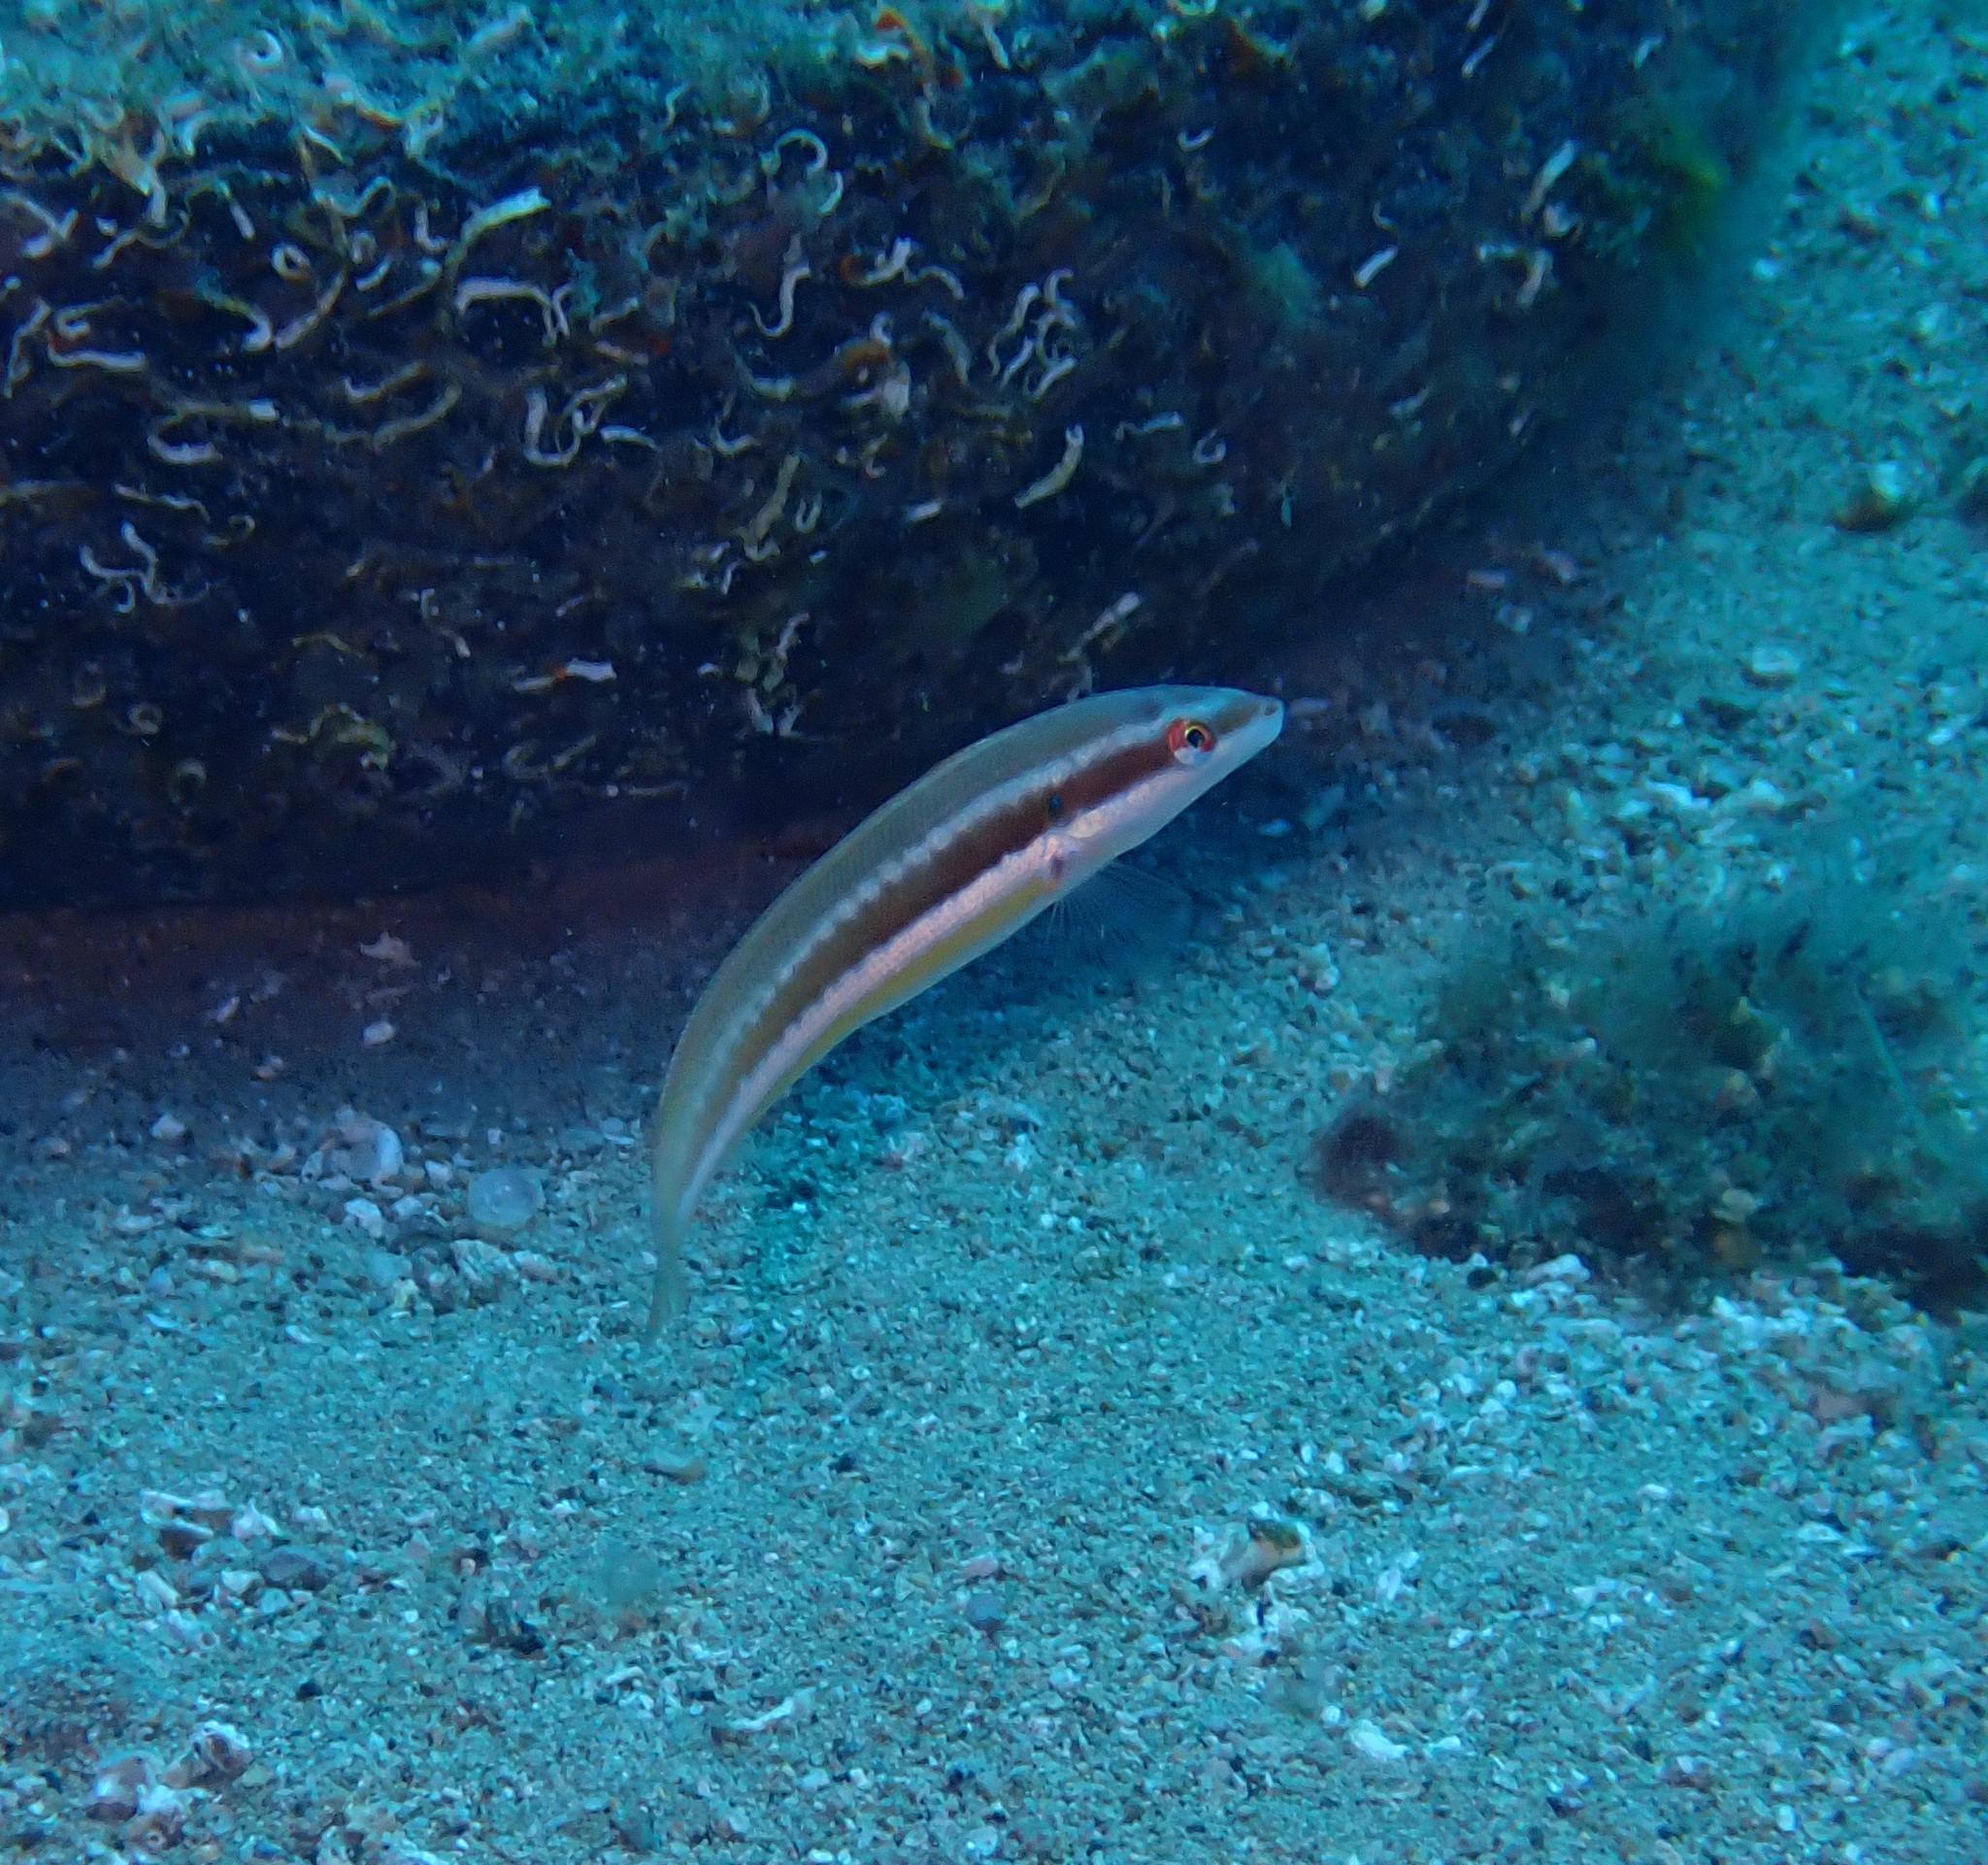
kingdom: Animalia
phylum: Chordata
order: Perciformes
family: Labridae
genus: Coris
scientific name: Coris julis
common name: Rainbow wrasse
